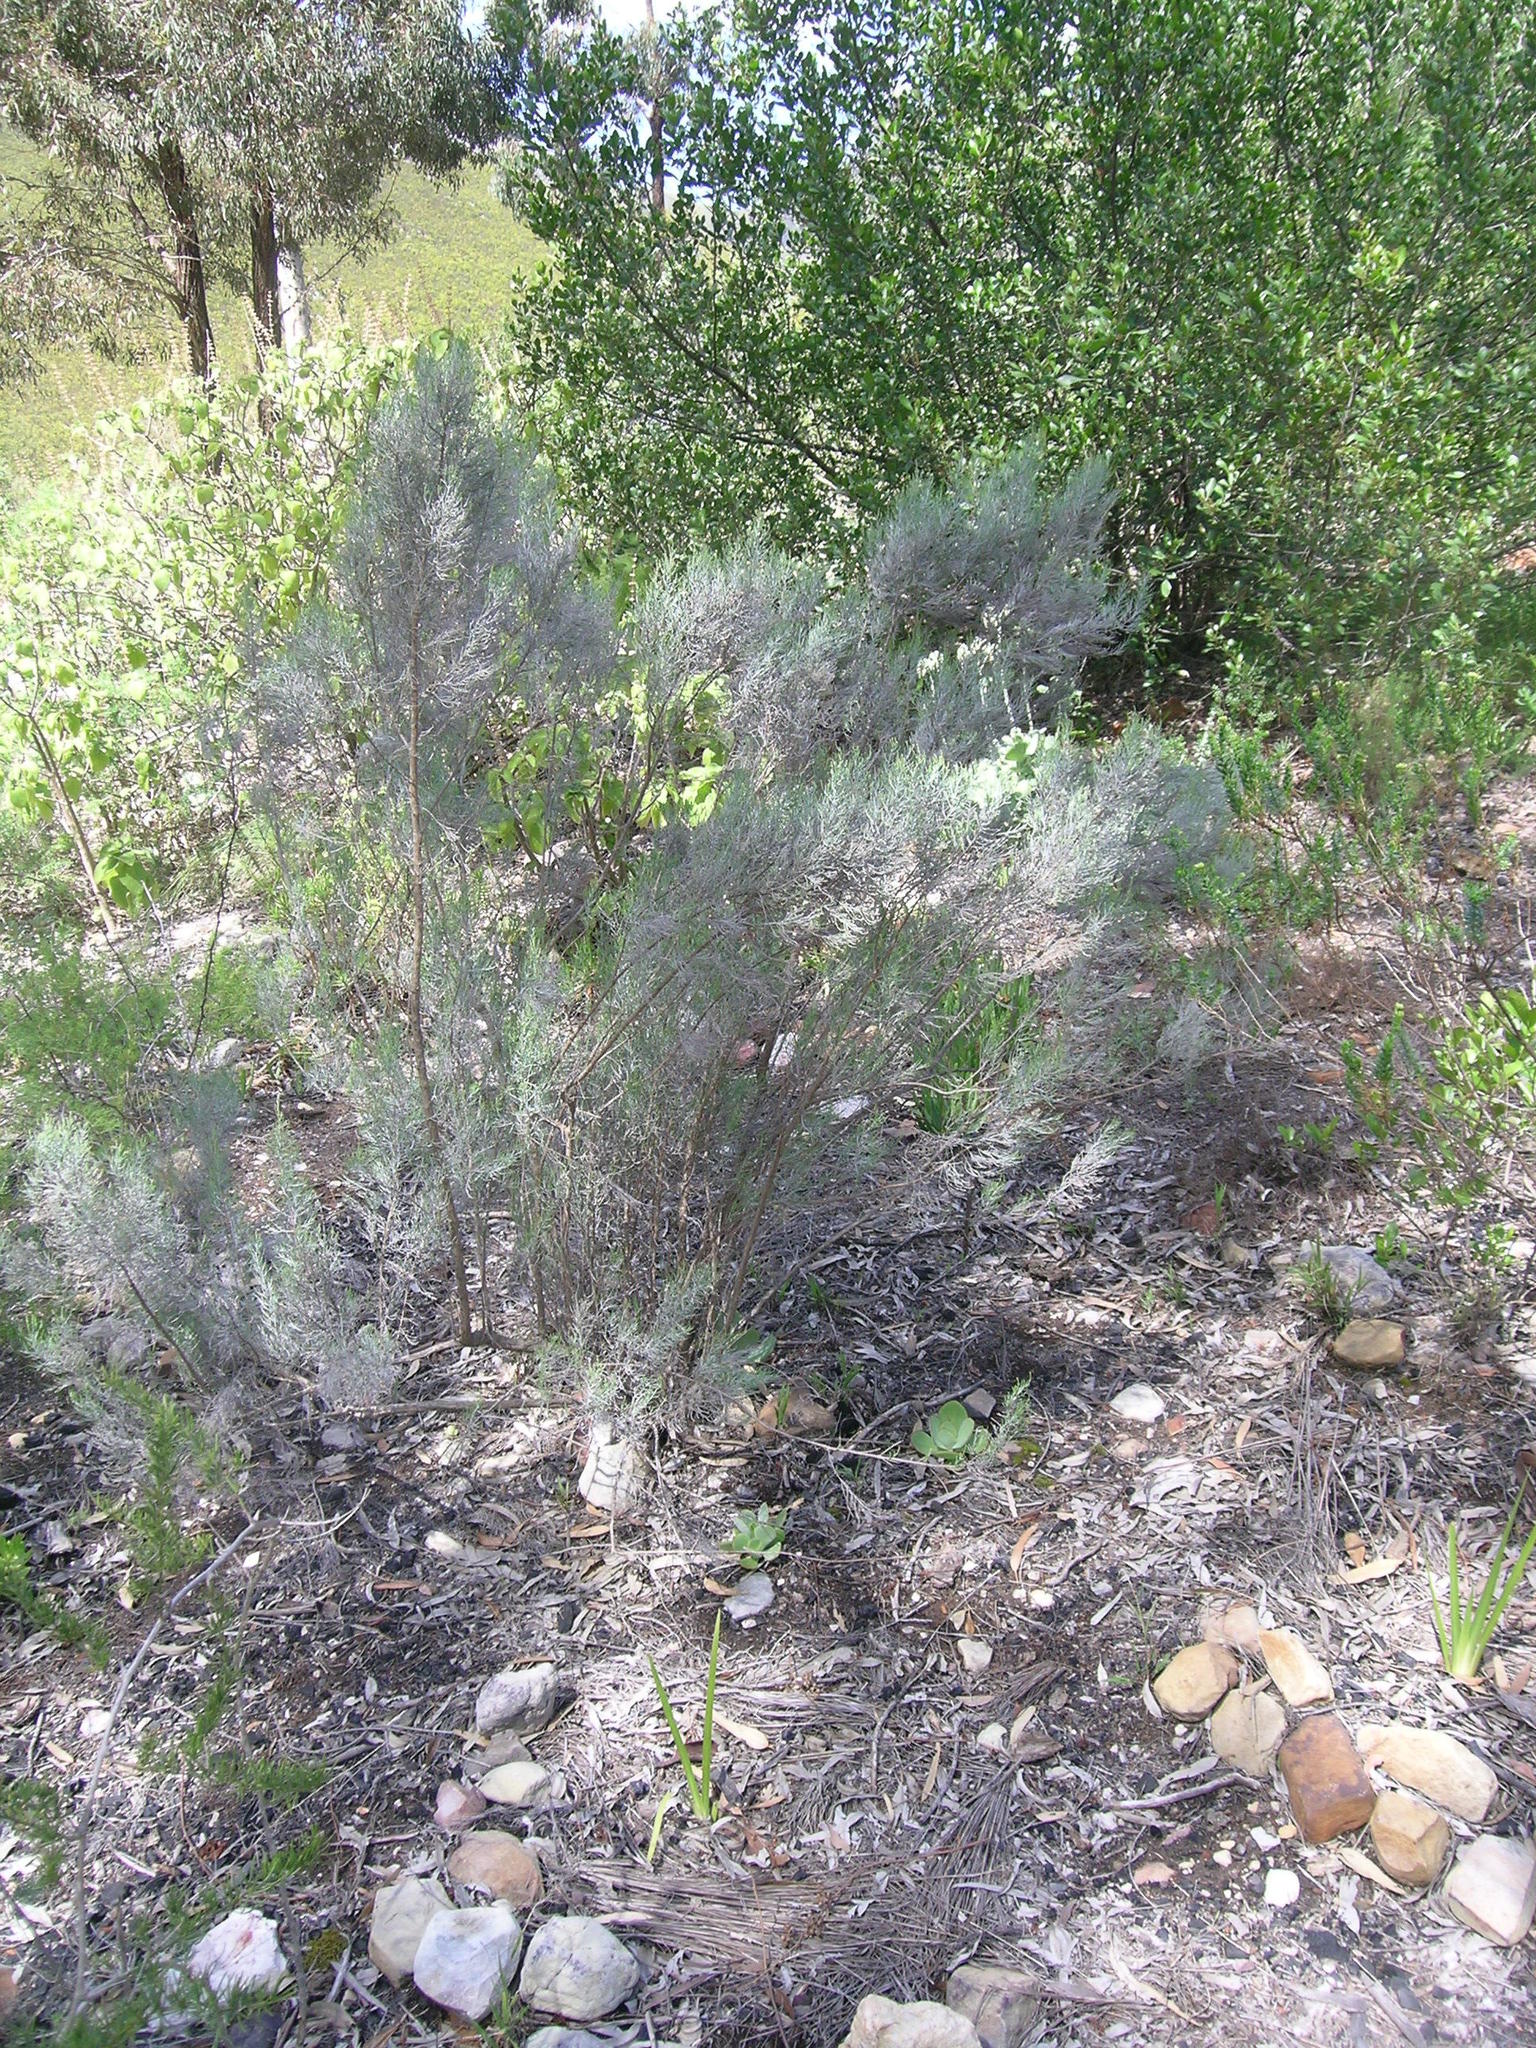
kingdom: Plantae
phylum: Tracheophyta
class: Magnoliopsida
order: Asterales
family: Asteraceae
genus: Dicerothamnus
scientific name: Dicerothamnus rhinocerotis
